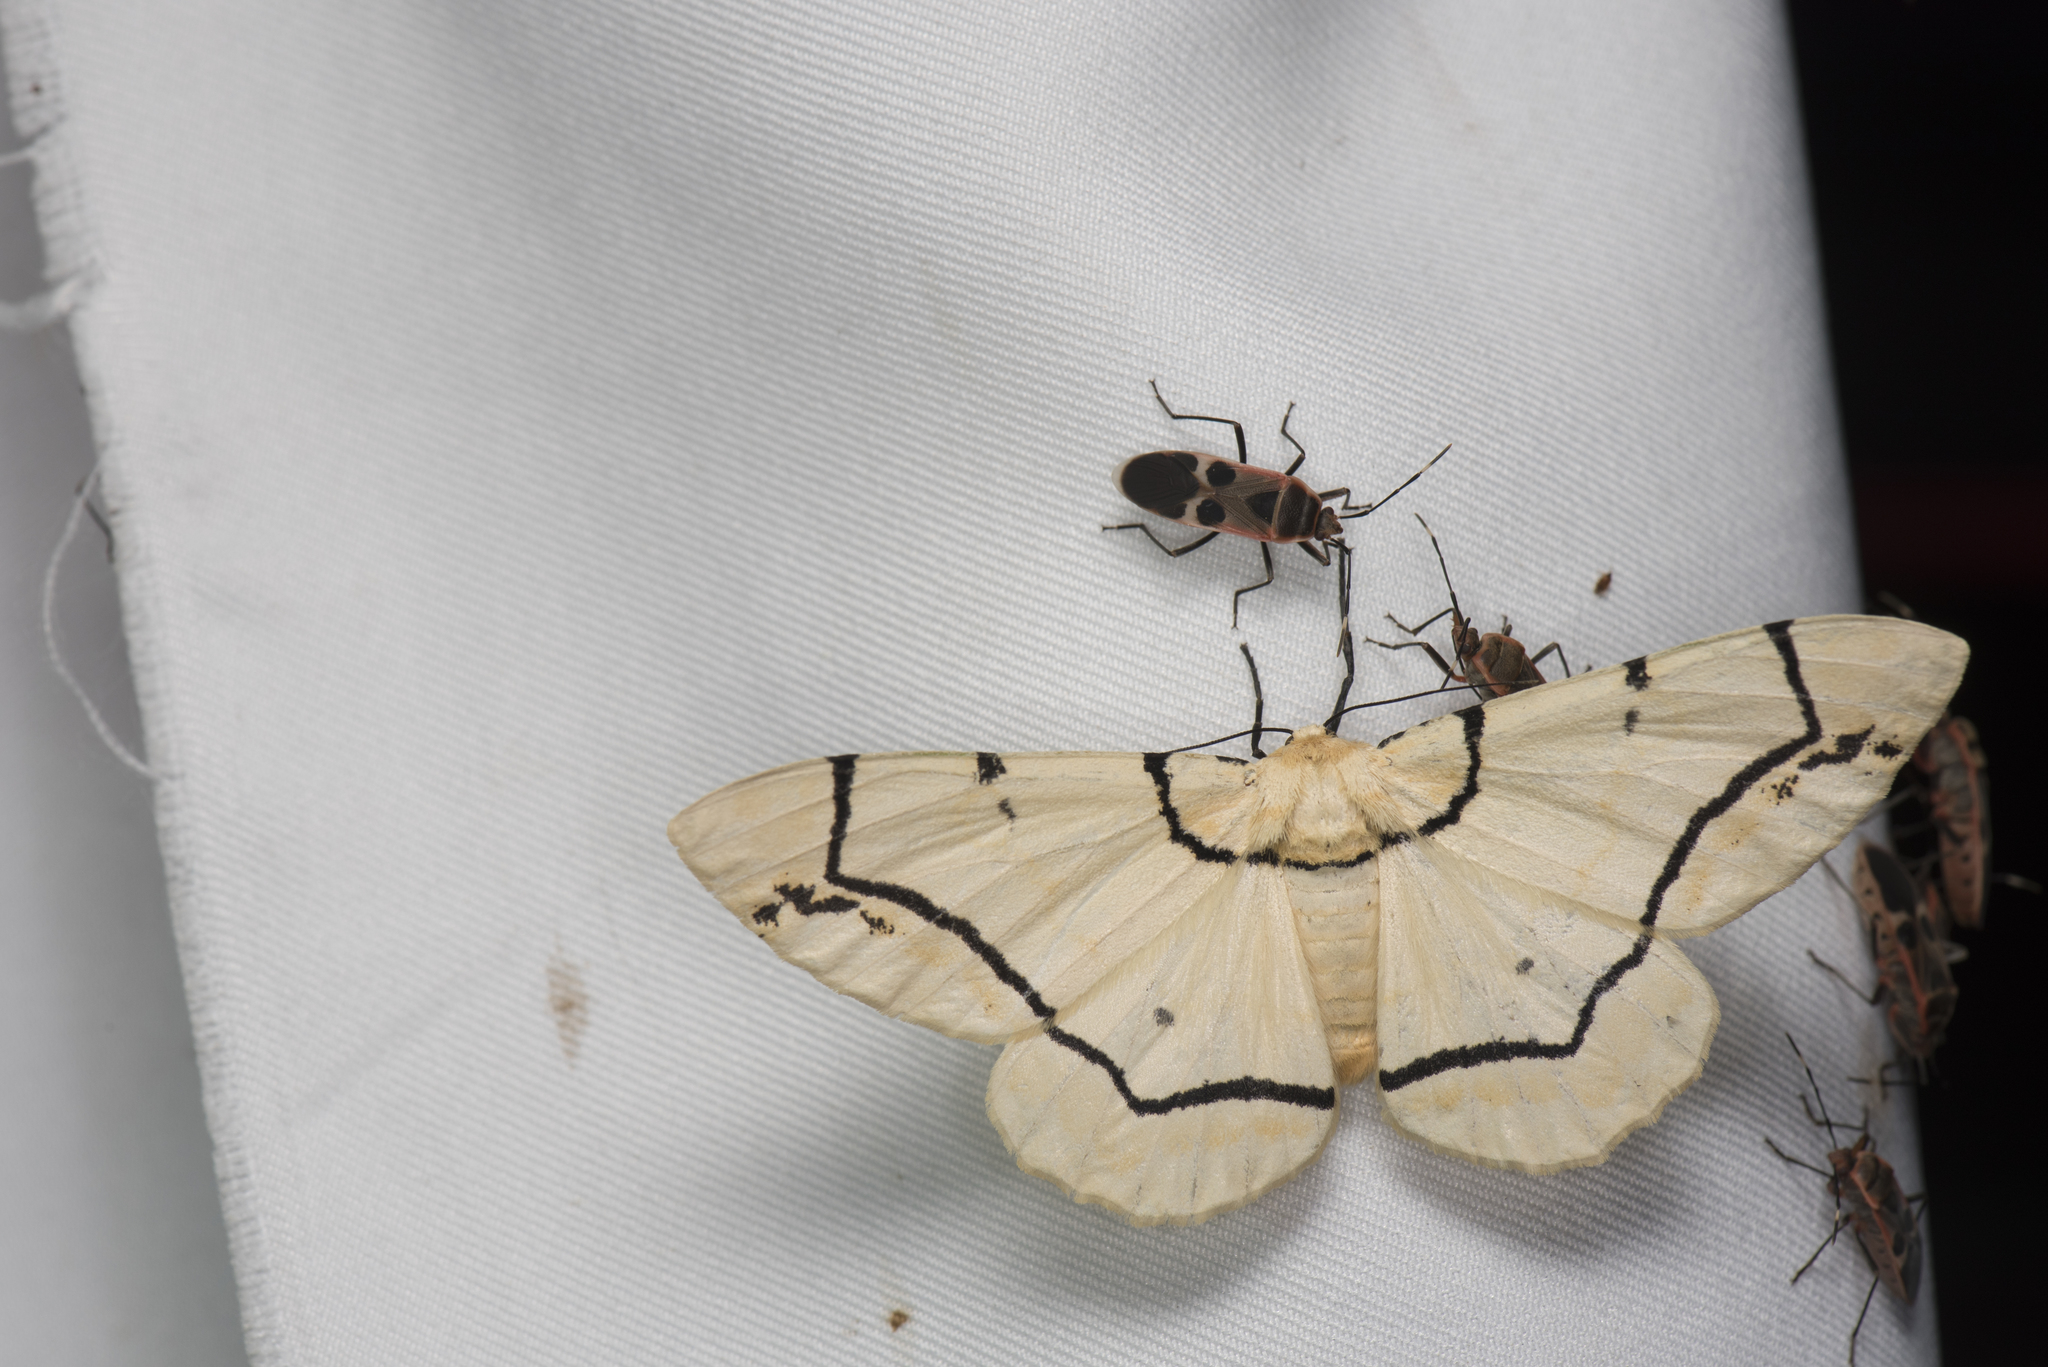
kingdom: Animalia
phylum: Arthropoda
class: Insecta
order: Lepidoptera
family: Geometridae
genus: Biston
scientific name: Biston perclara
